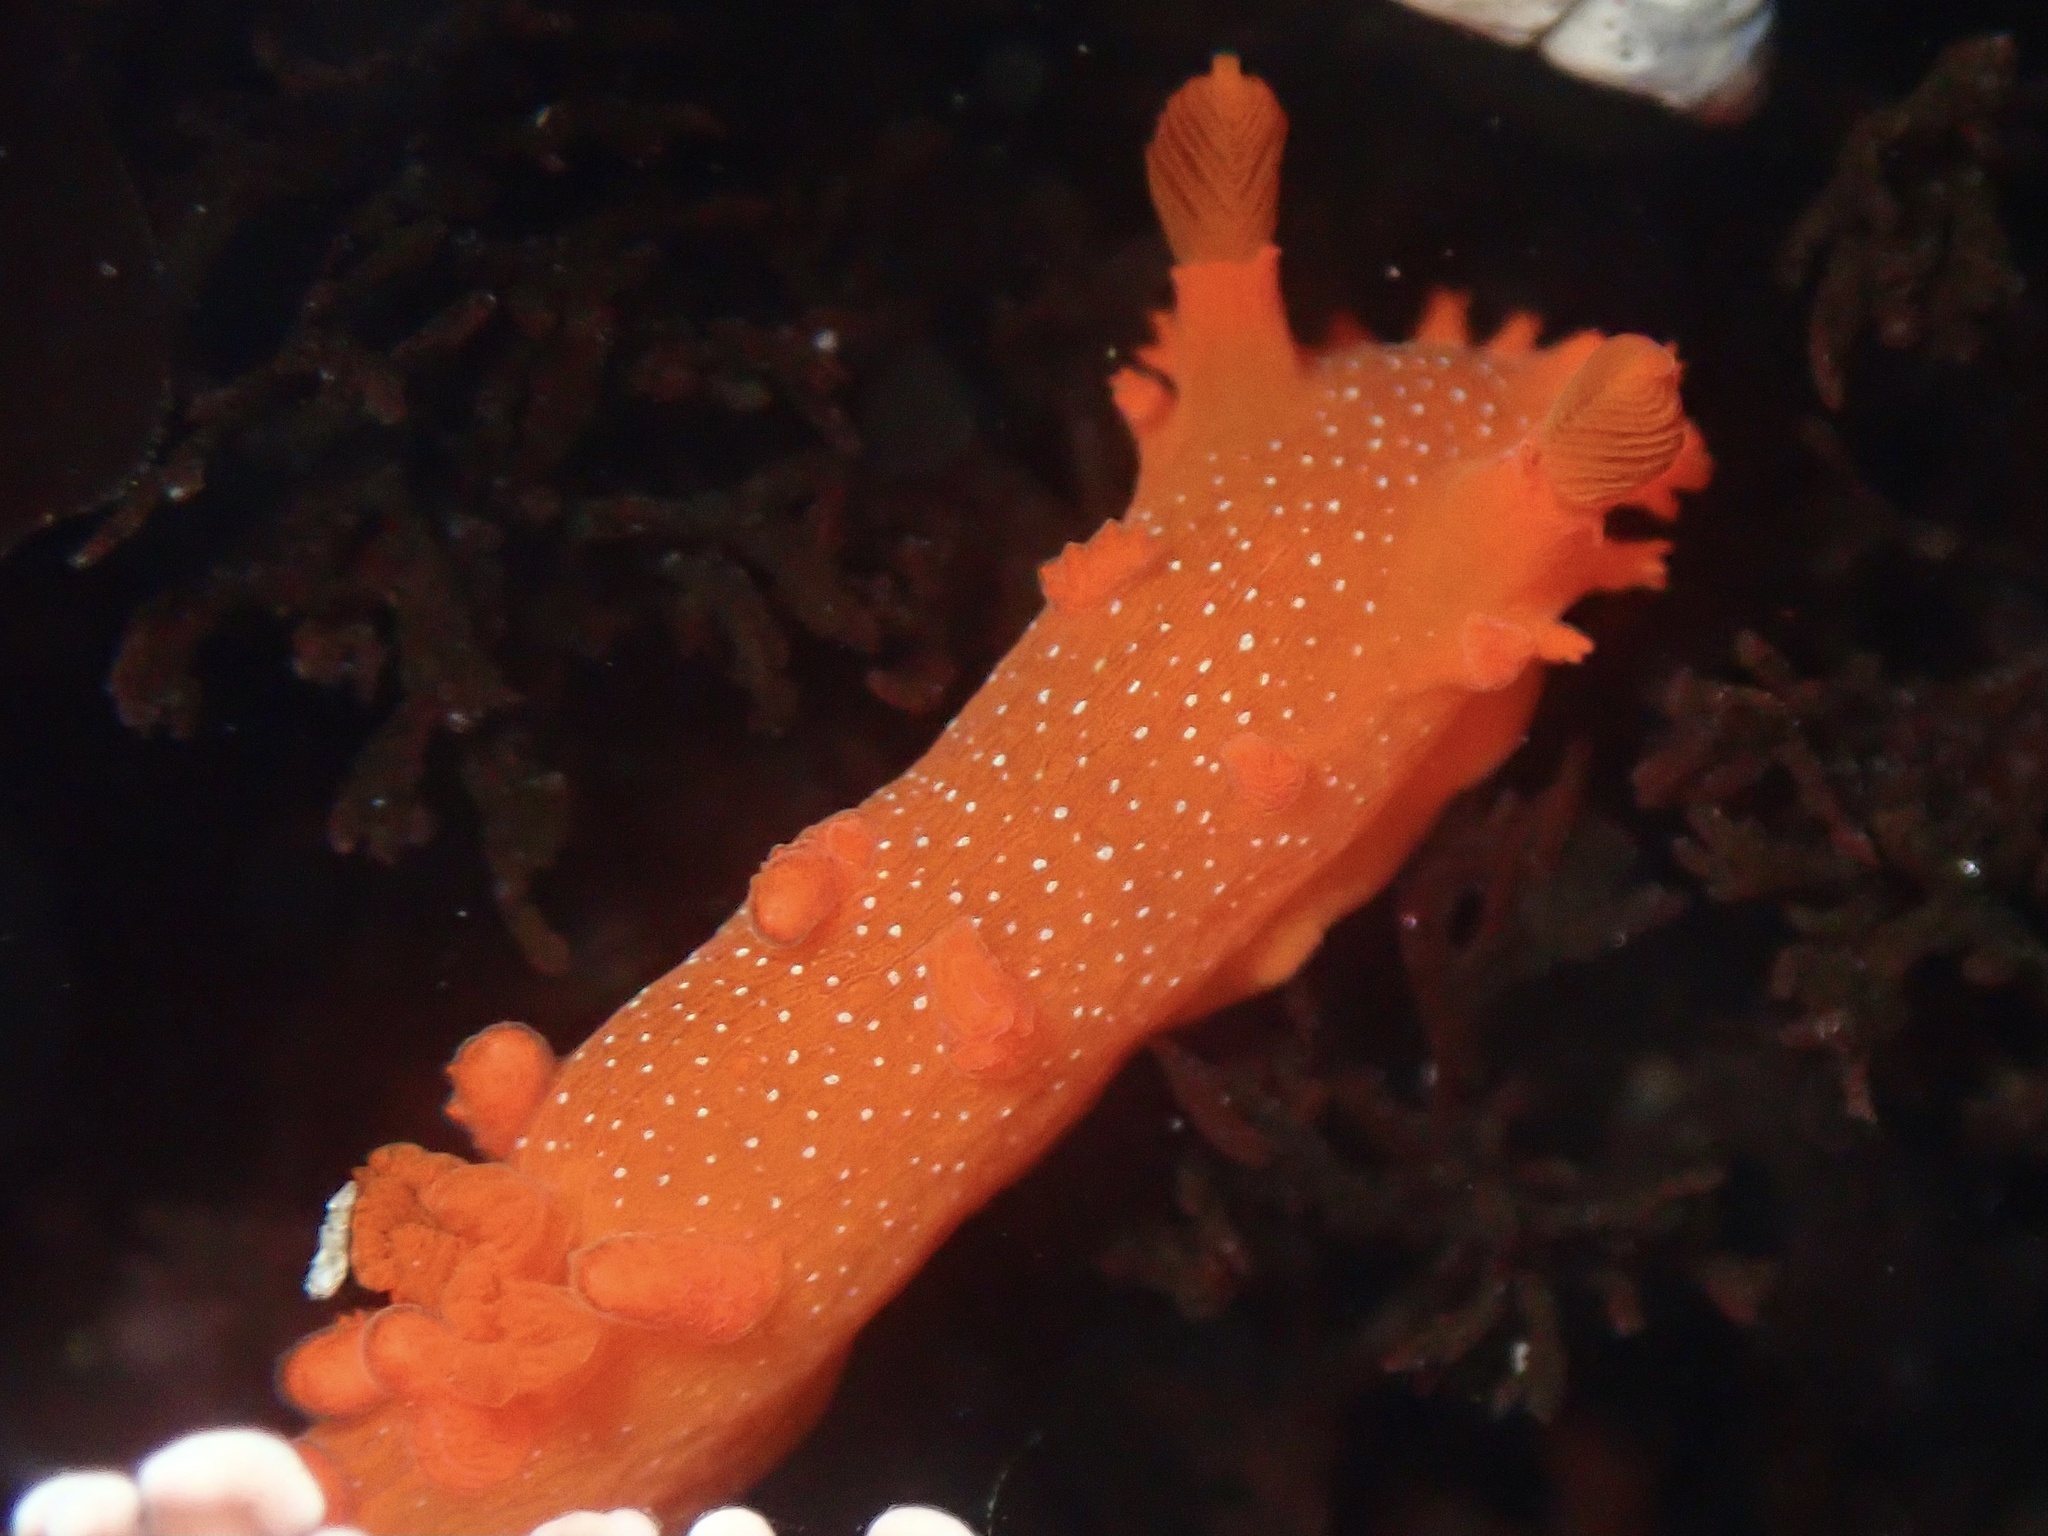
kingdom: Animalia
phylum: Mollusca
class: Gastropoda
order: Nudibranchia
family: Polyceridae
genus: Triopha
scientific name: Triopha maculata
